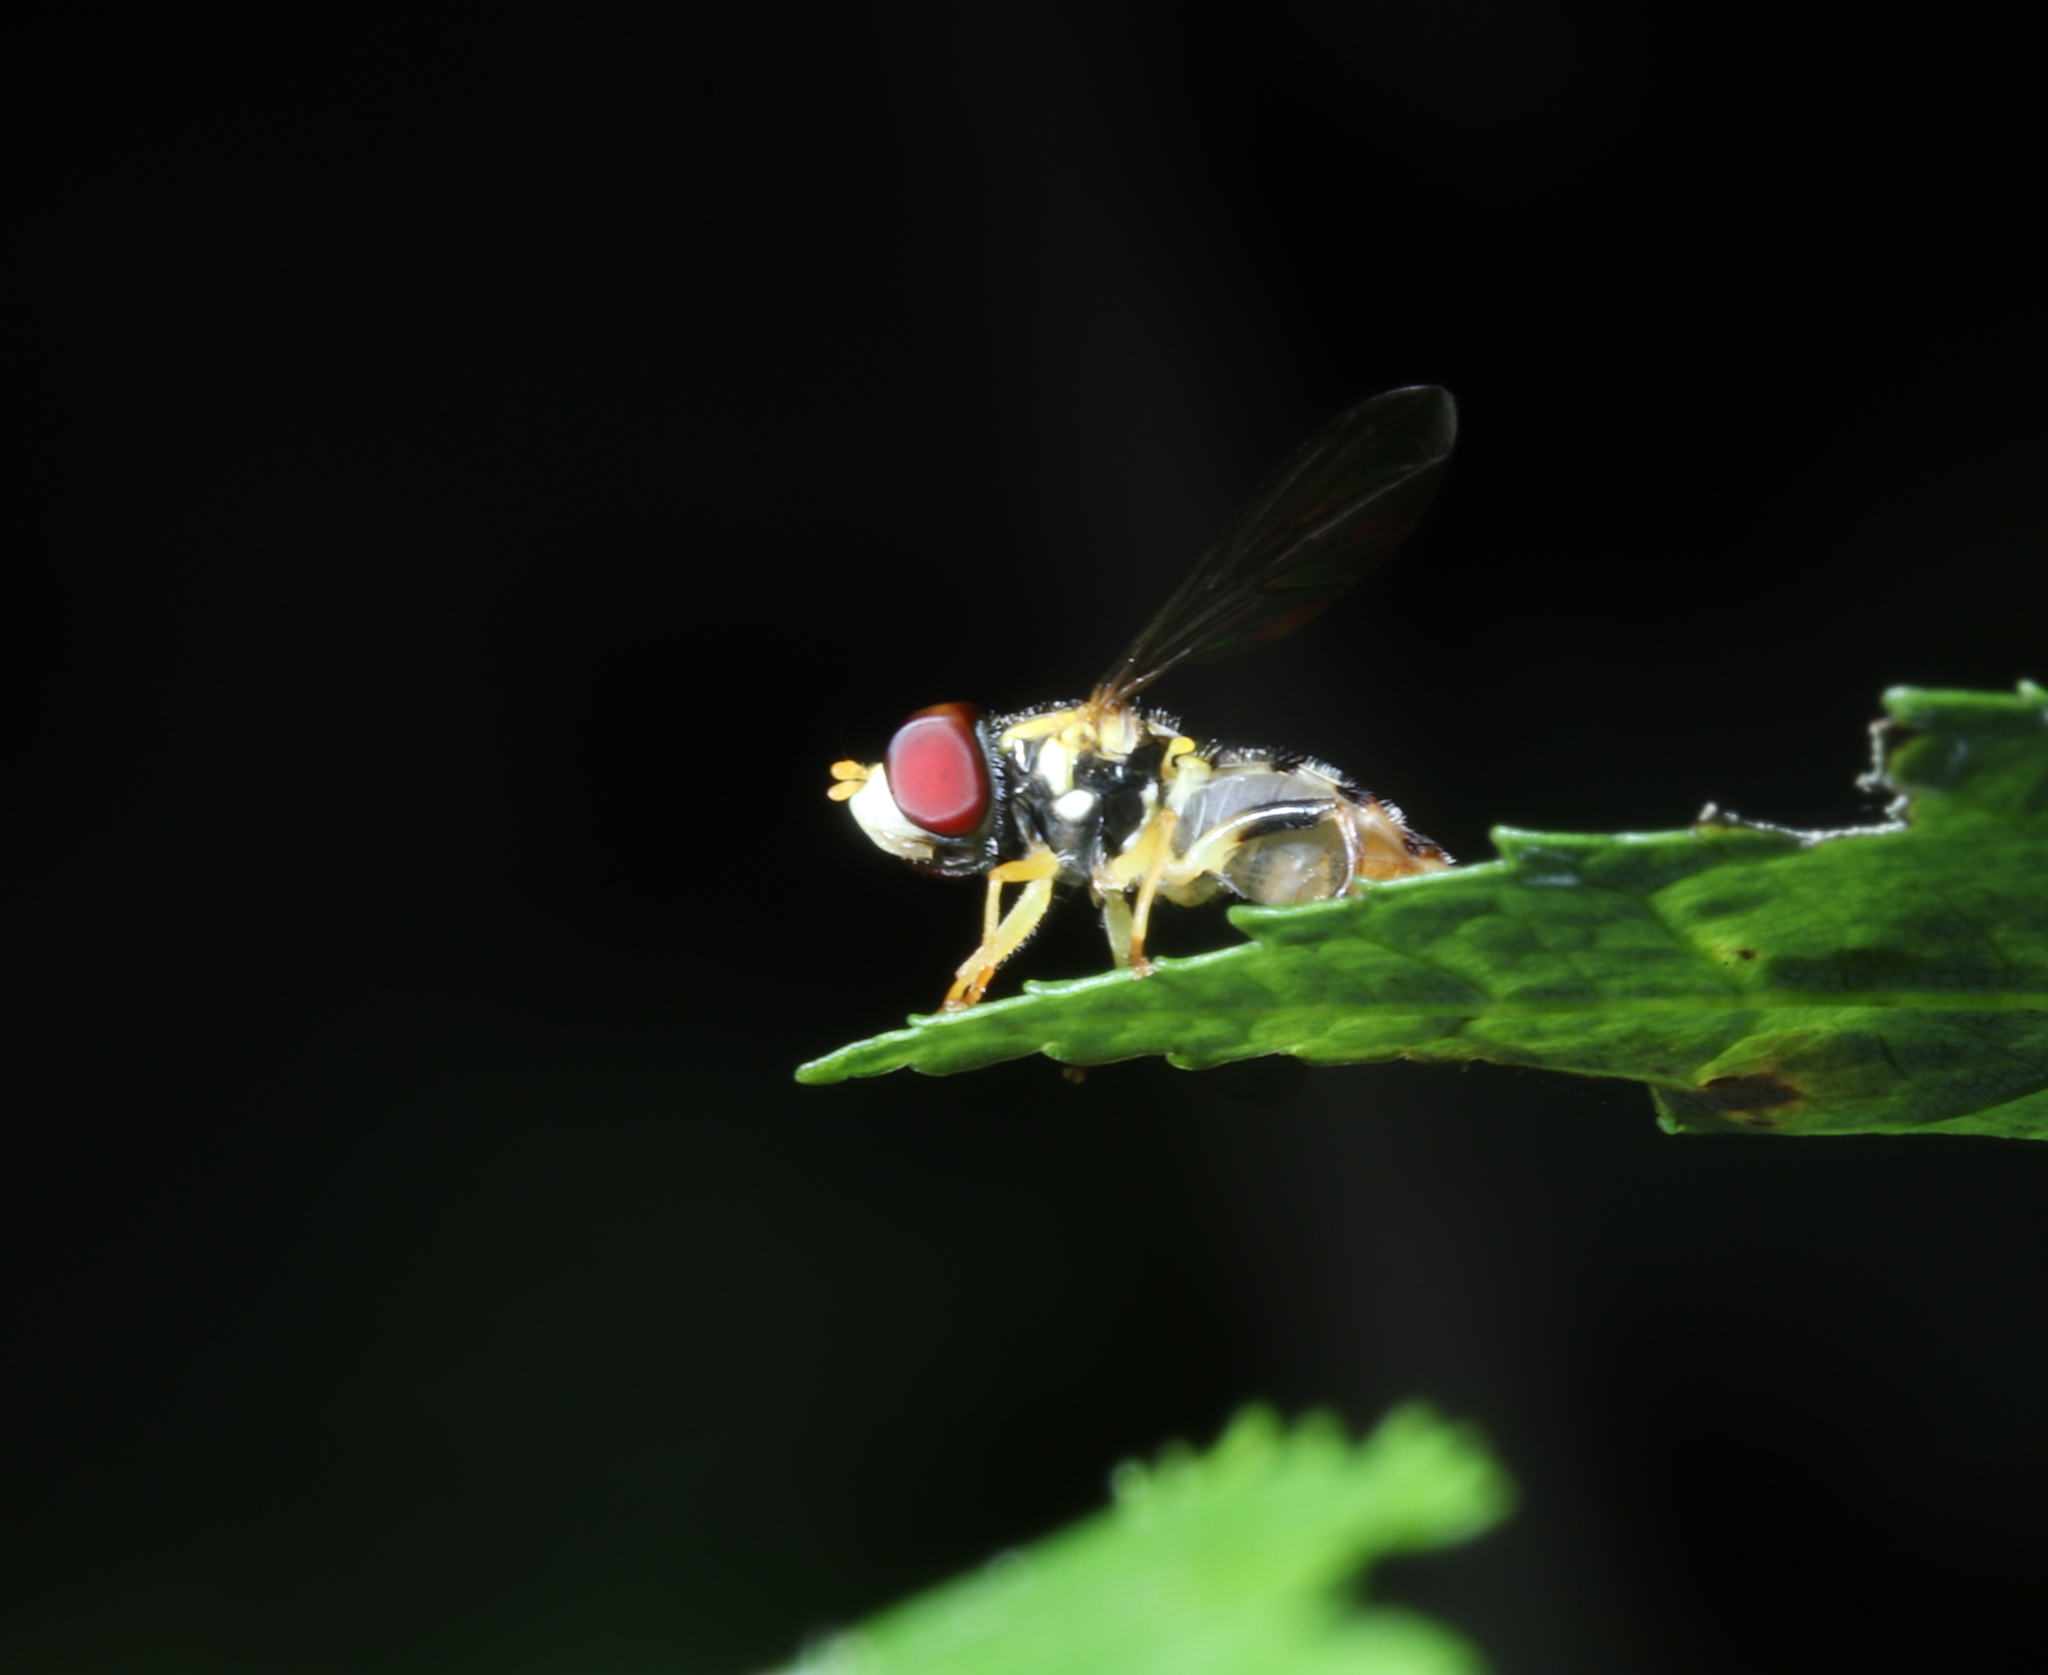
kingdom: Animalia
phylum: Arthropoda
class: Insecta
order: Diptera
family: Syrphidae
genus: Toxomerus
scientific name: Toxomerus geminatus
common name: Eastern calligrapher
